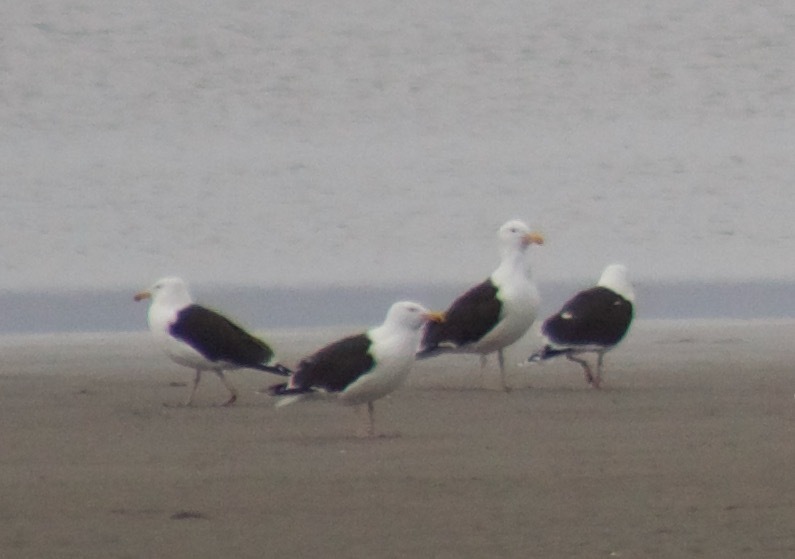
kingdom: Animalia
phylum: Chordata
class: Aves
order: Charadriiformes
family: Laridae
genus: Larus
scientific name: Larus marinus
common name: Great black-backed gull
